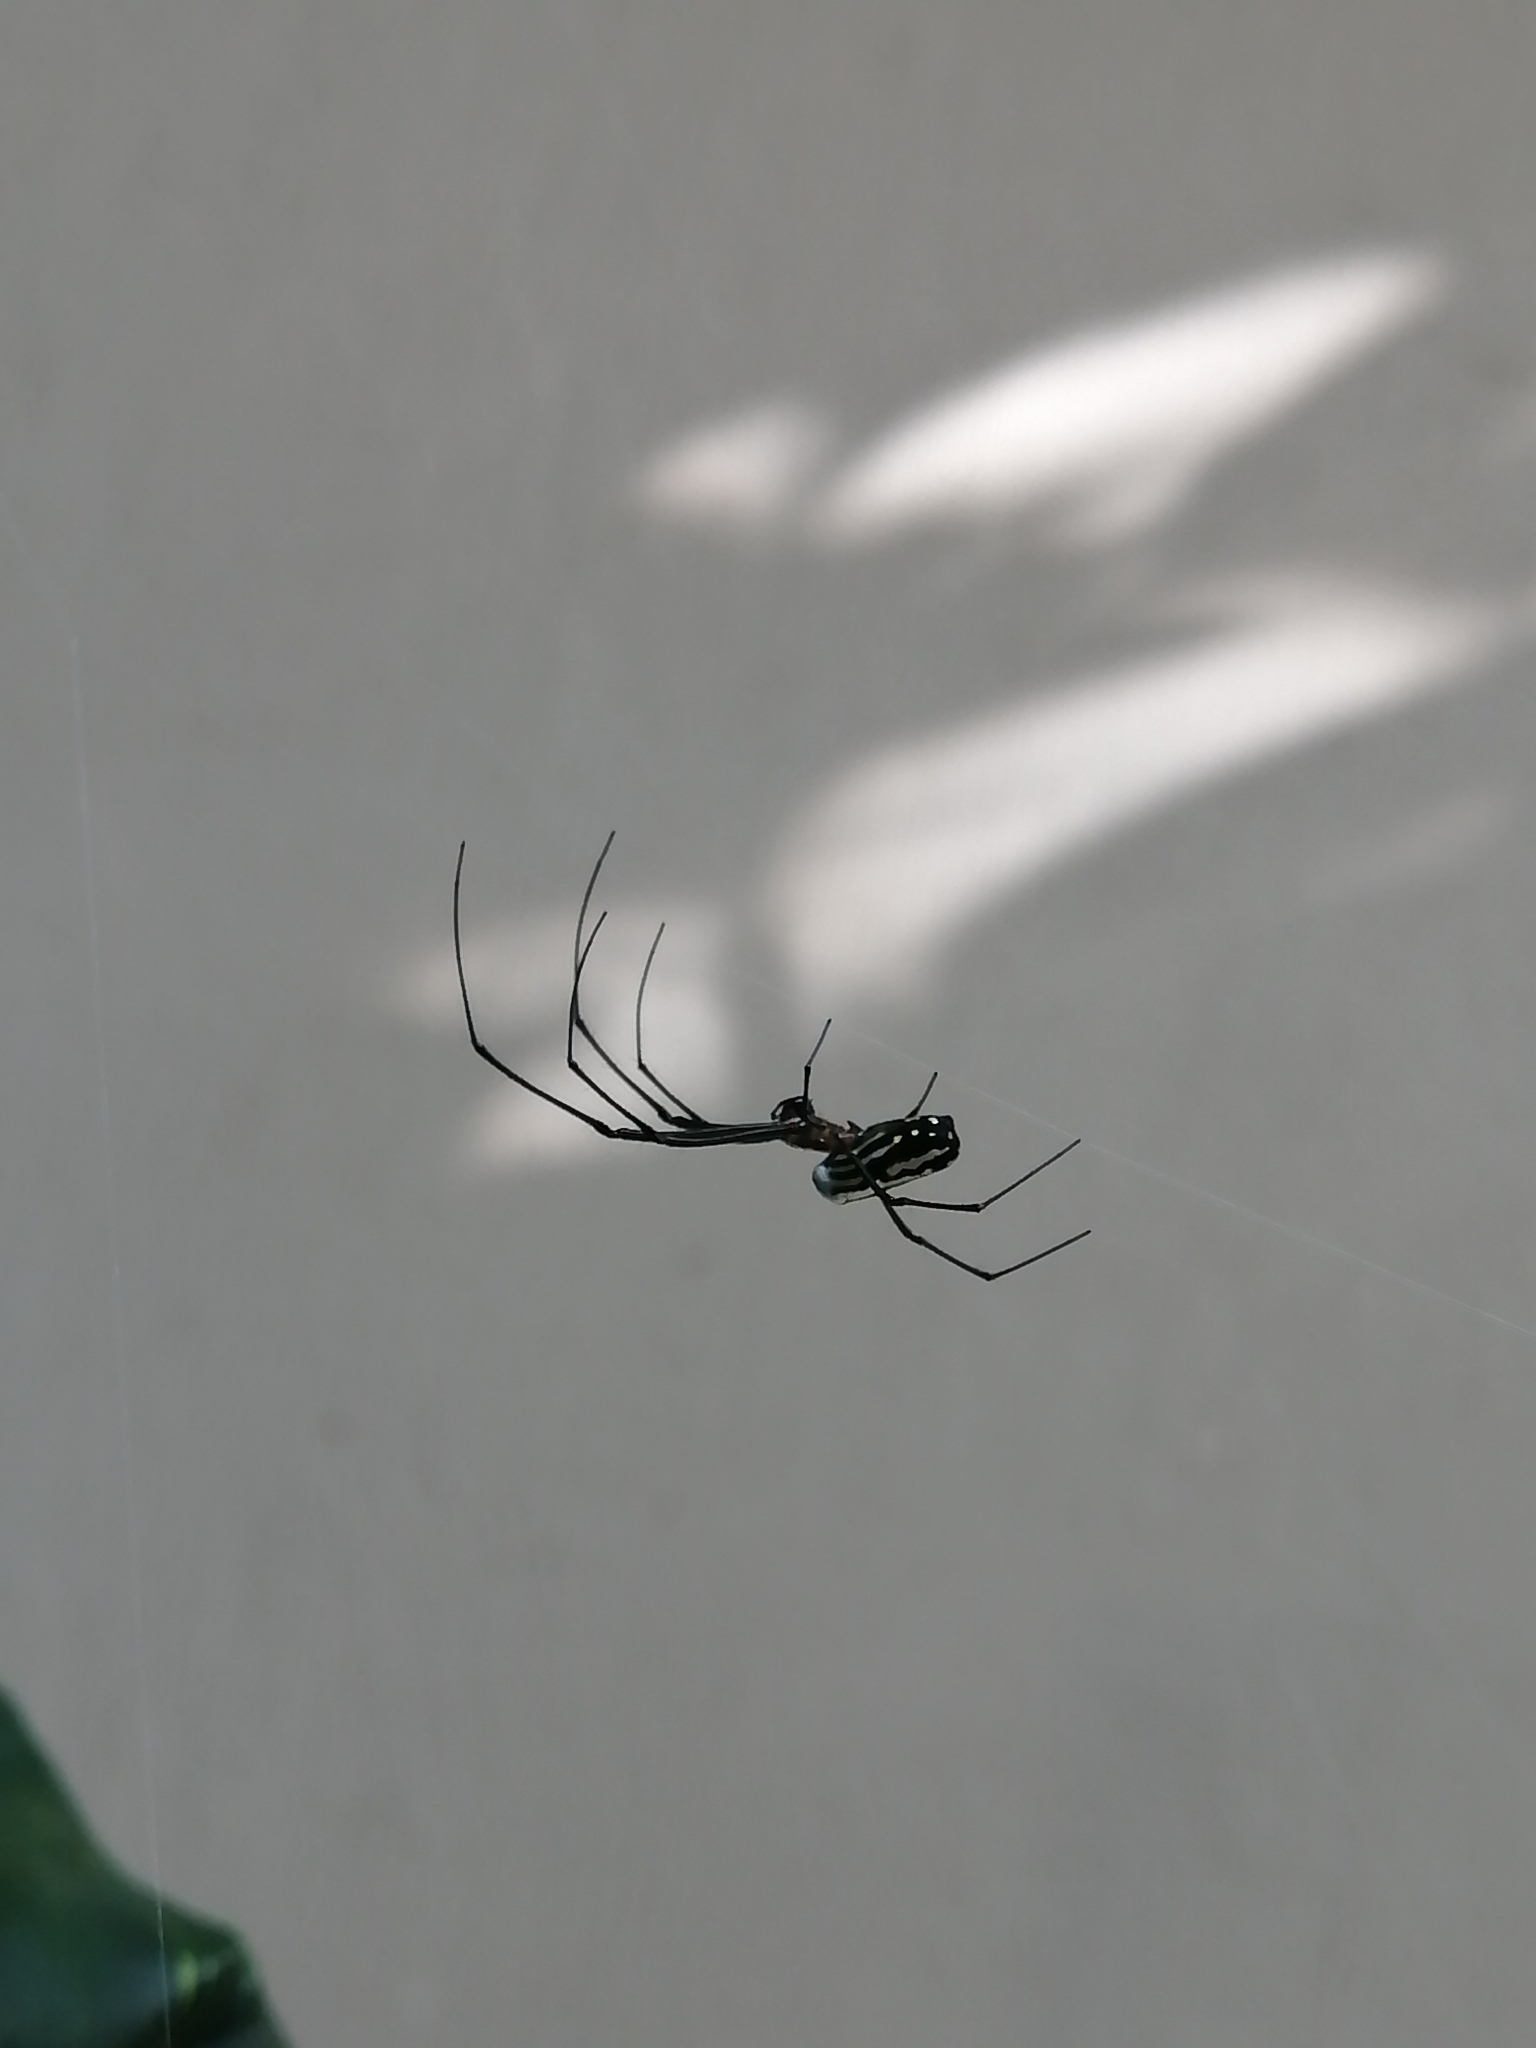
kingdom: Animalia
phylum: Arthropoda
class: Arachnida
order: Araneae
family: Tetragnathidae
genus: Leucauge
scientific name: Leucauge argyra
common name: Longjawed orb weavers
